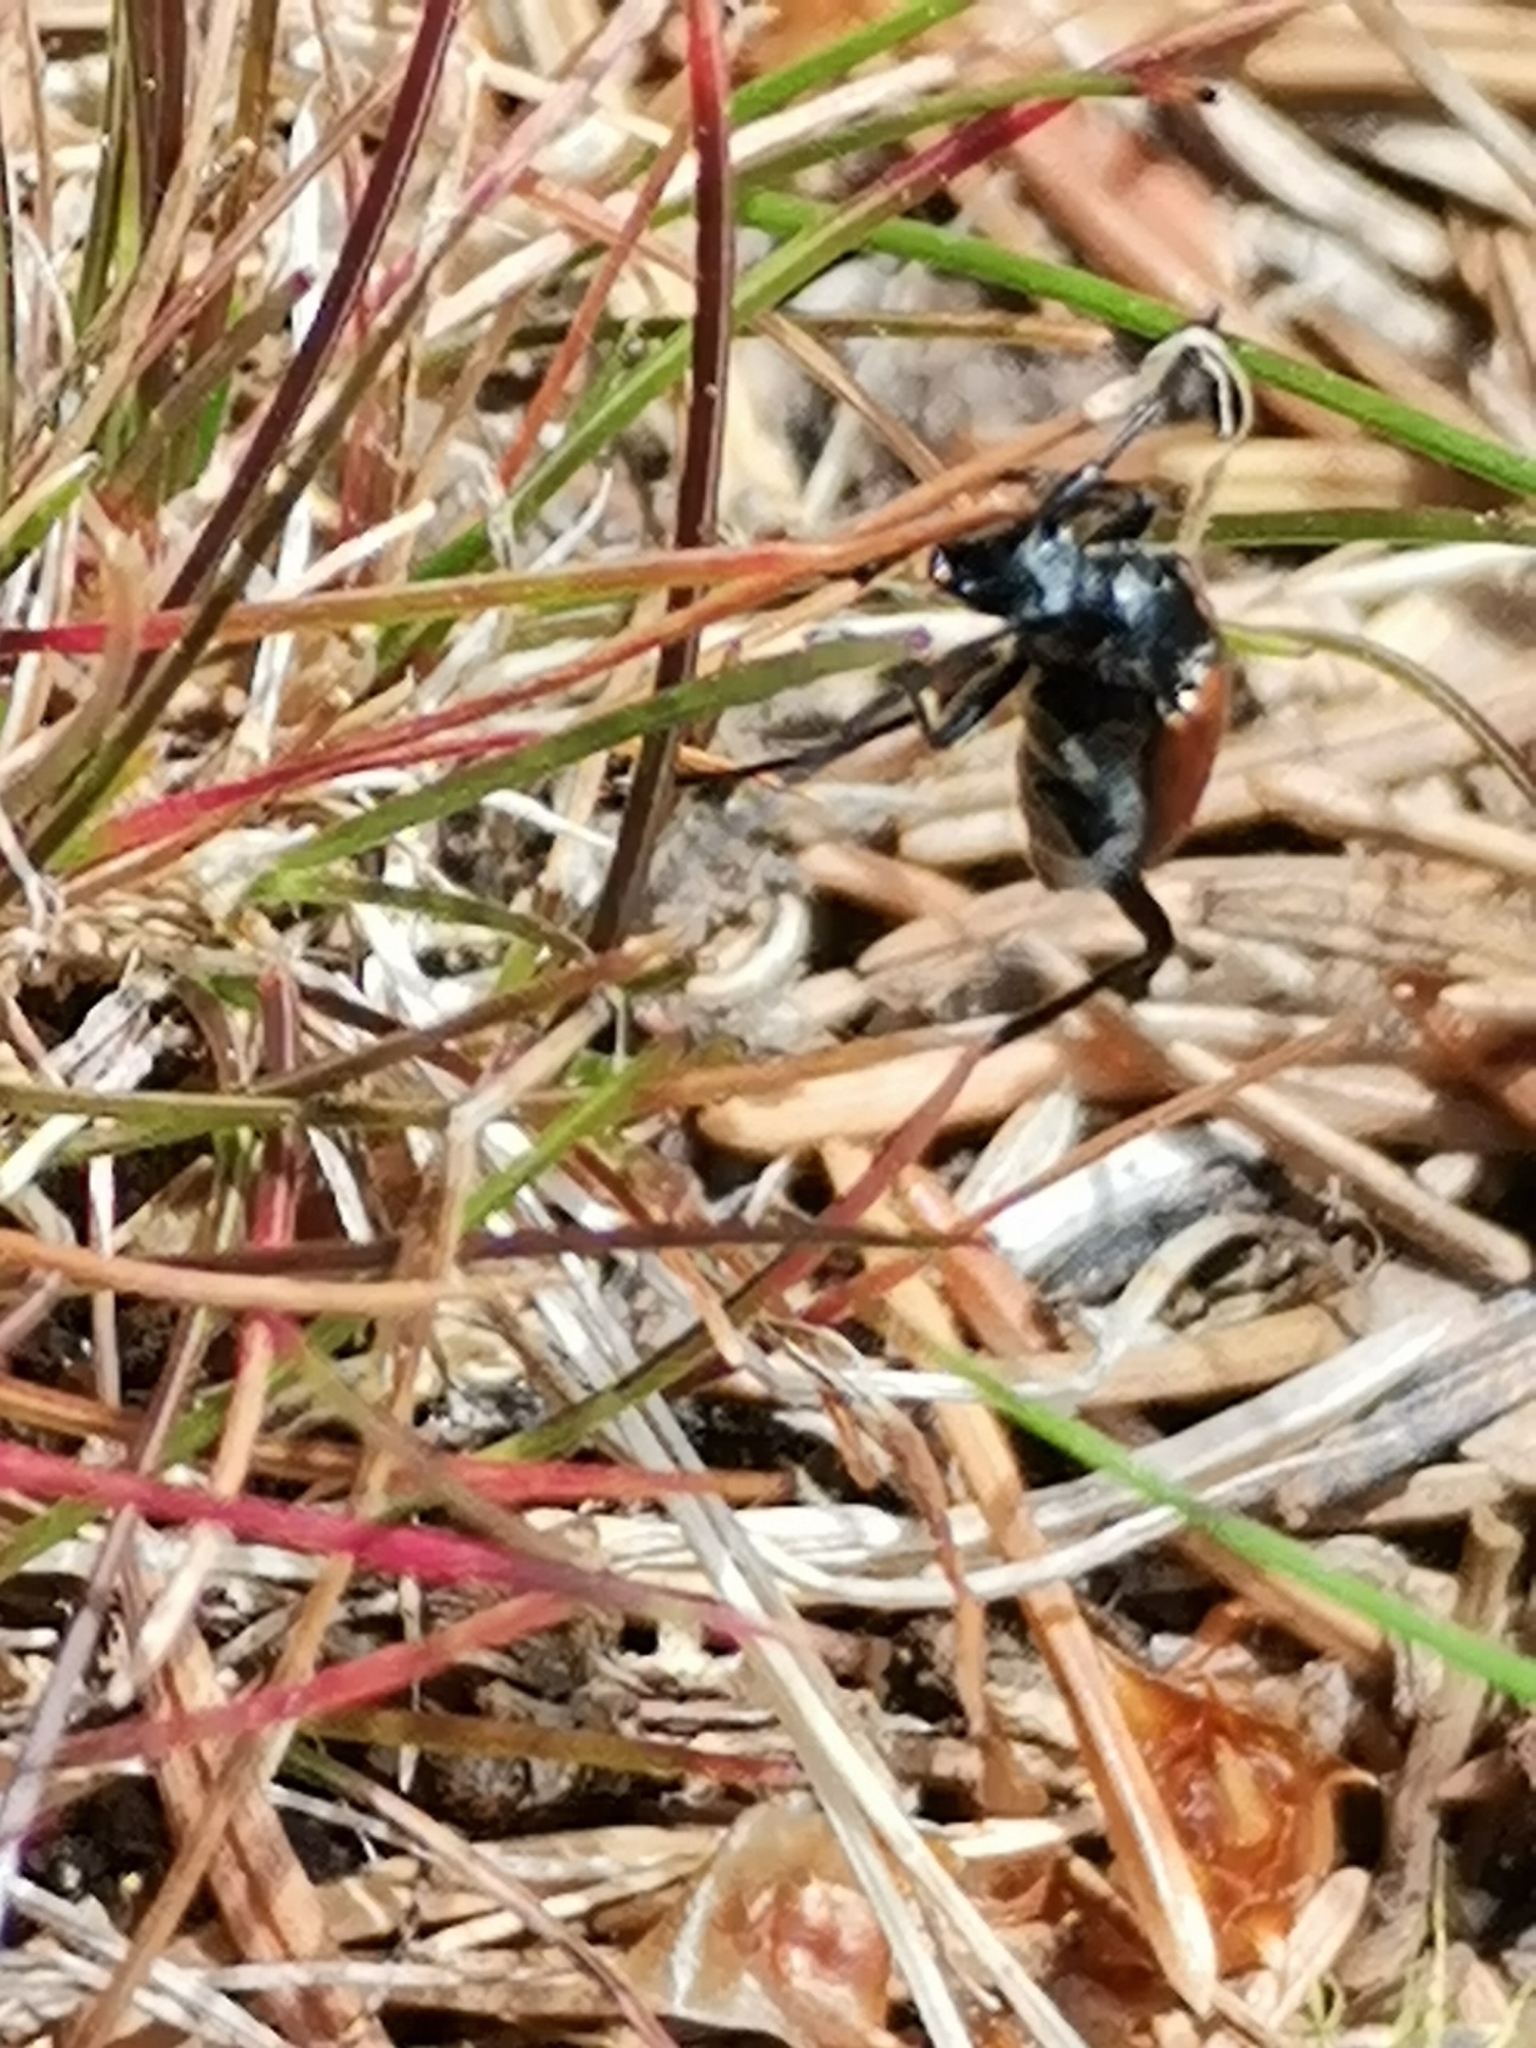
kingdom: Animalia
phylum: Arthropoda
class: Insecta
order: Coleoptera
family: Cerambycidae
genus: Stenurella
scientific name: Stenurella melanura
